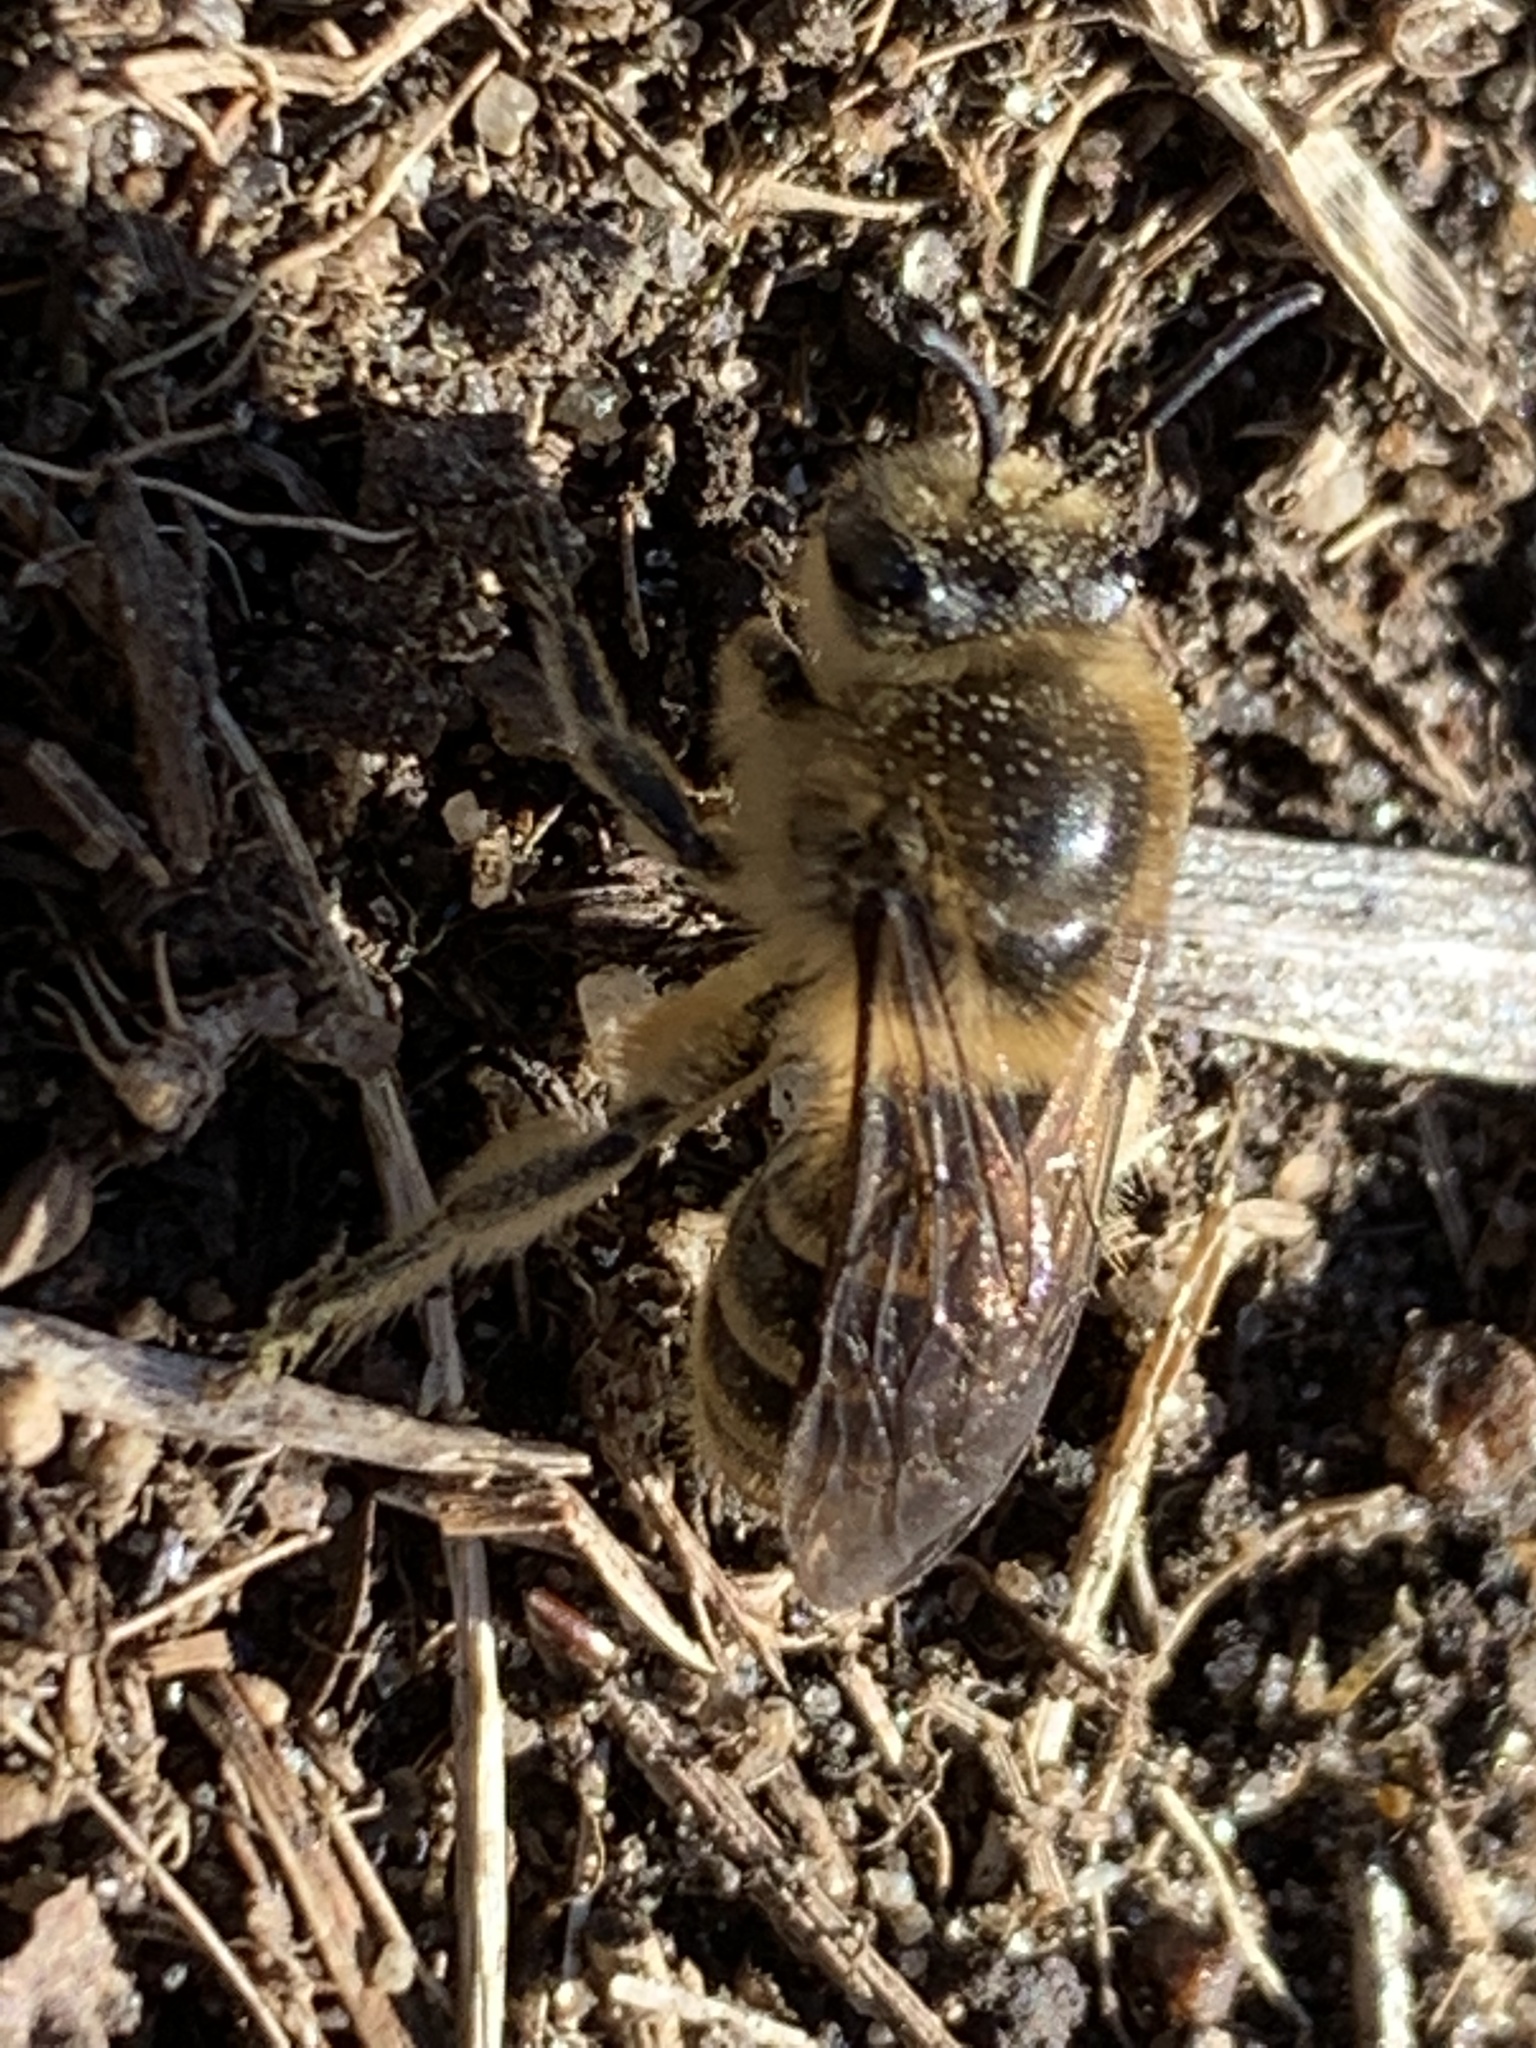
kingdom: Animalia
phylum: Arthropoda
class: Insecta
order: Hymenoptera
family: Colletidae
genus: Colletes
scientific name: Colletes inaequalis
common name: Unequal cellophane bee
